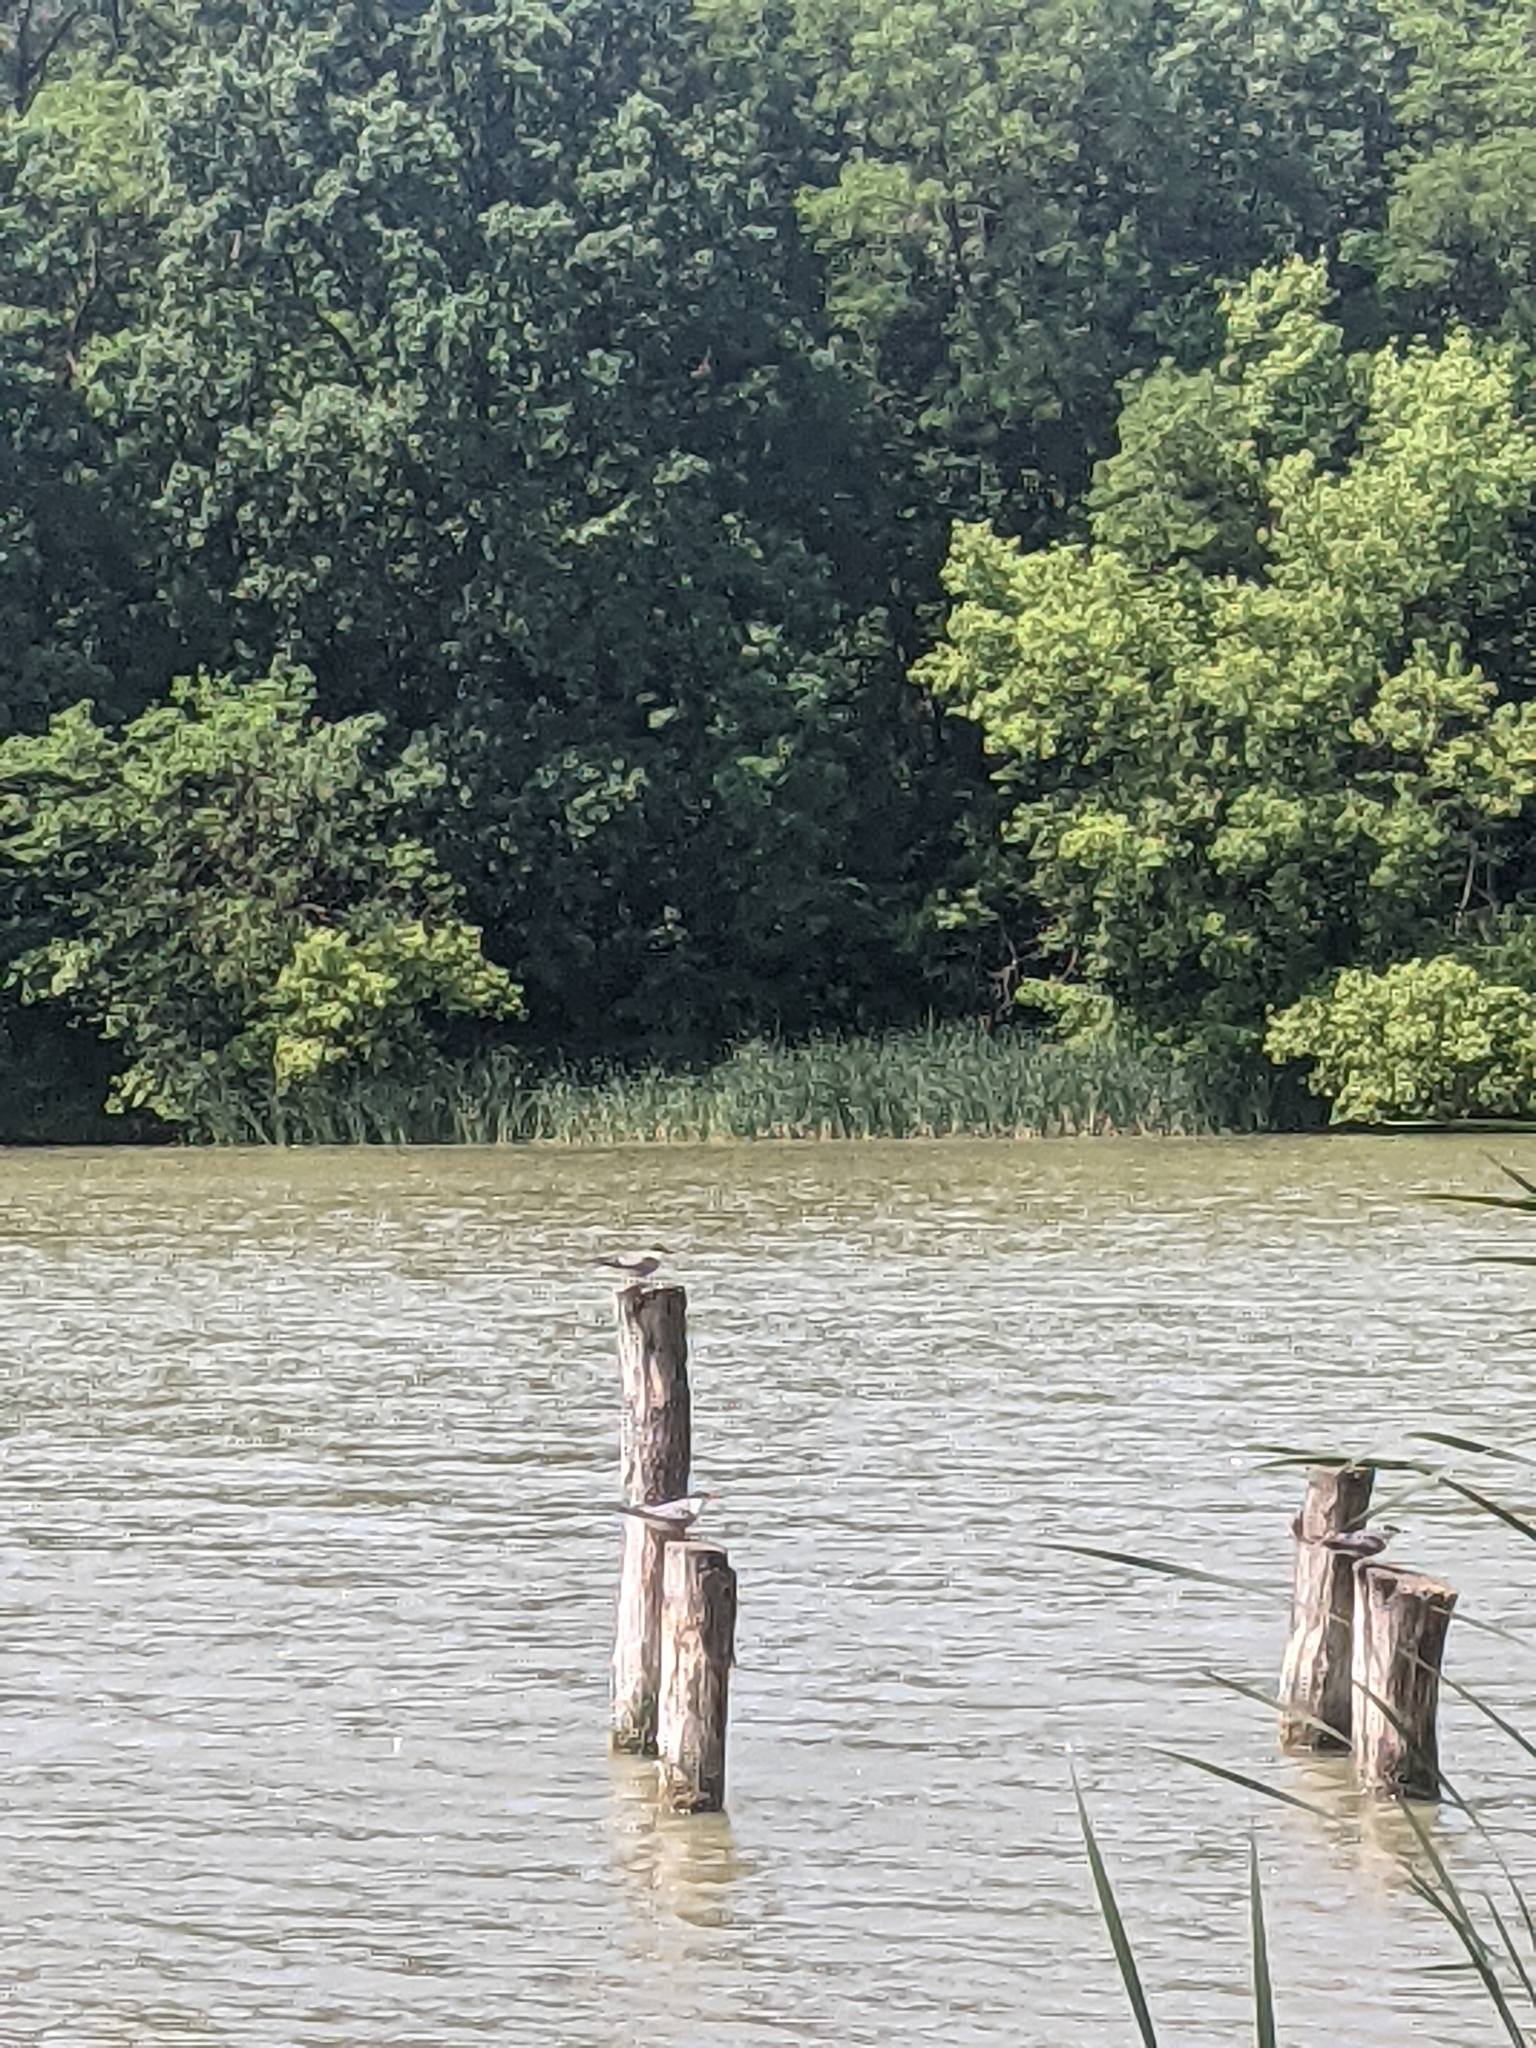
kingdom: Animalia
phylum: Chordata
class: Aves
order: Charadriiformes
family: Laridae
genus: Sterna
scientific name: Sterna hirundo
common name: Common tern
